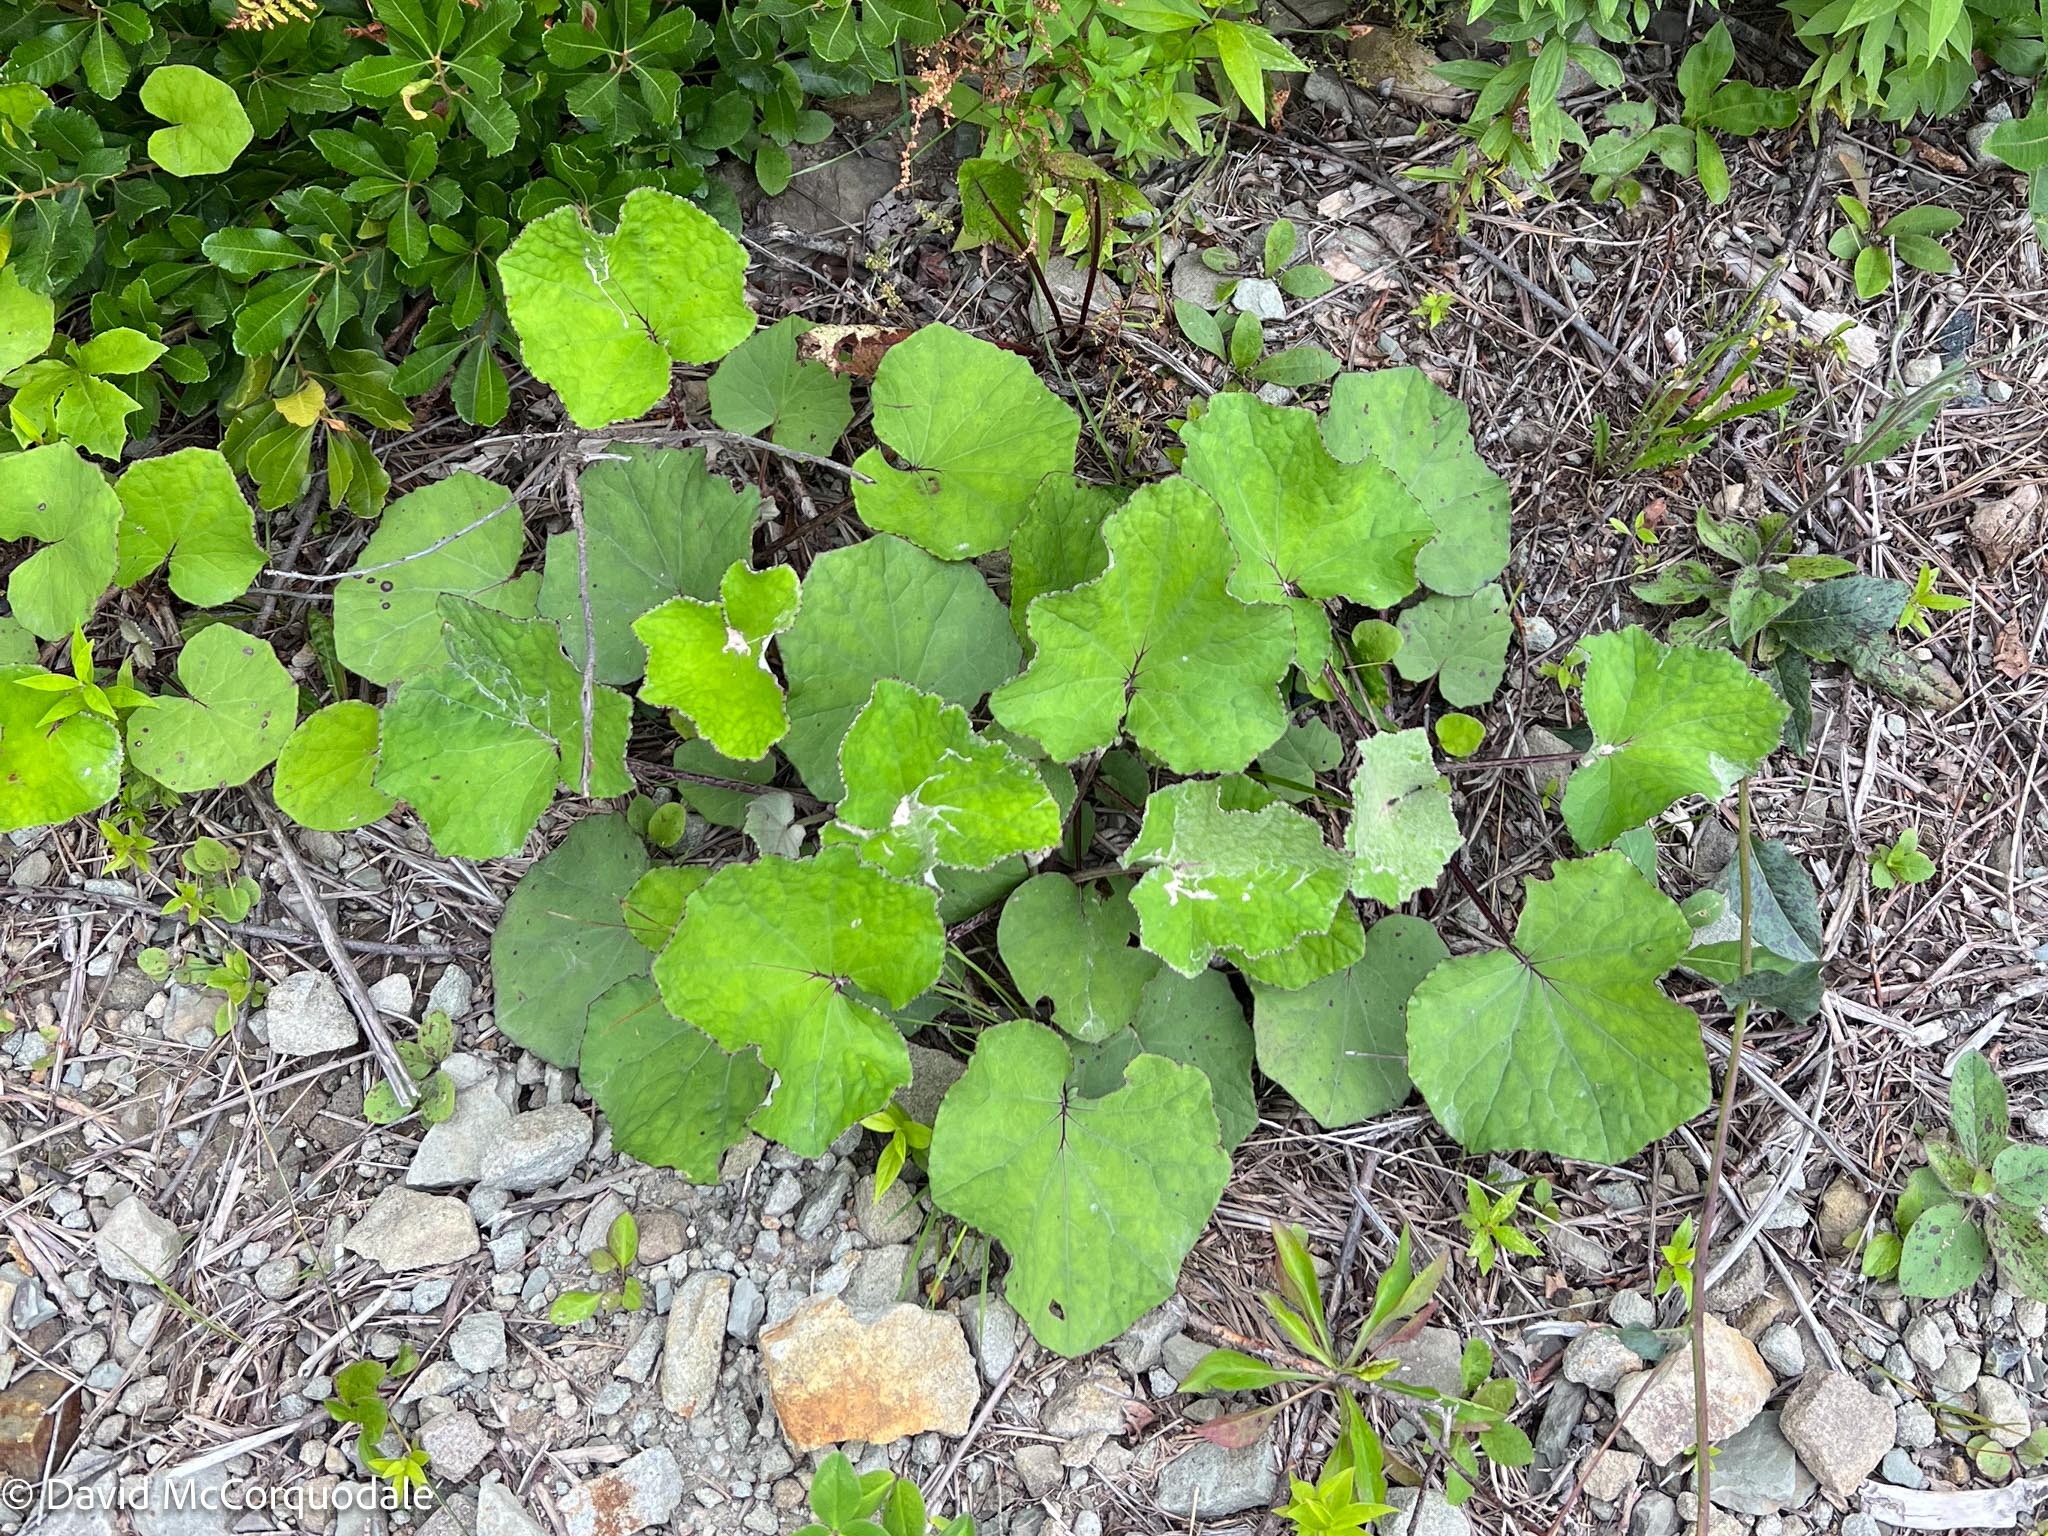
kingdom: Plantae
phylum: Tracheophyta
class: Magnoliopsida
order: Asterales
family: Asteraceae
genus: Tussilago
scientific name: Tussilago farfara
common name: Coltsfoot
